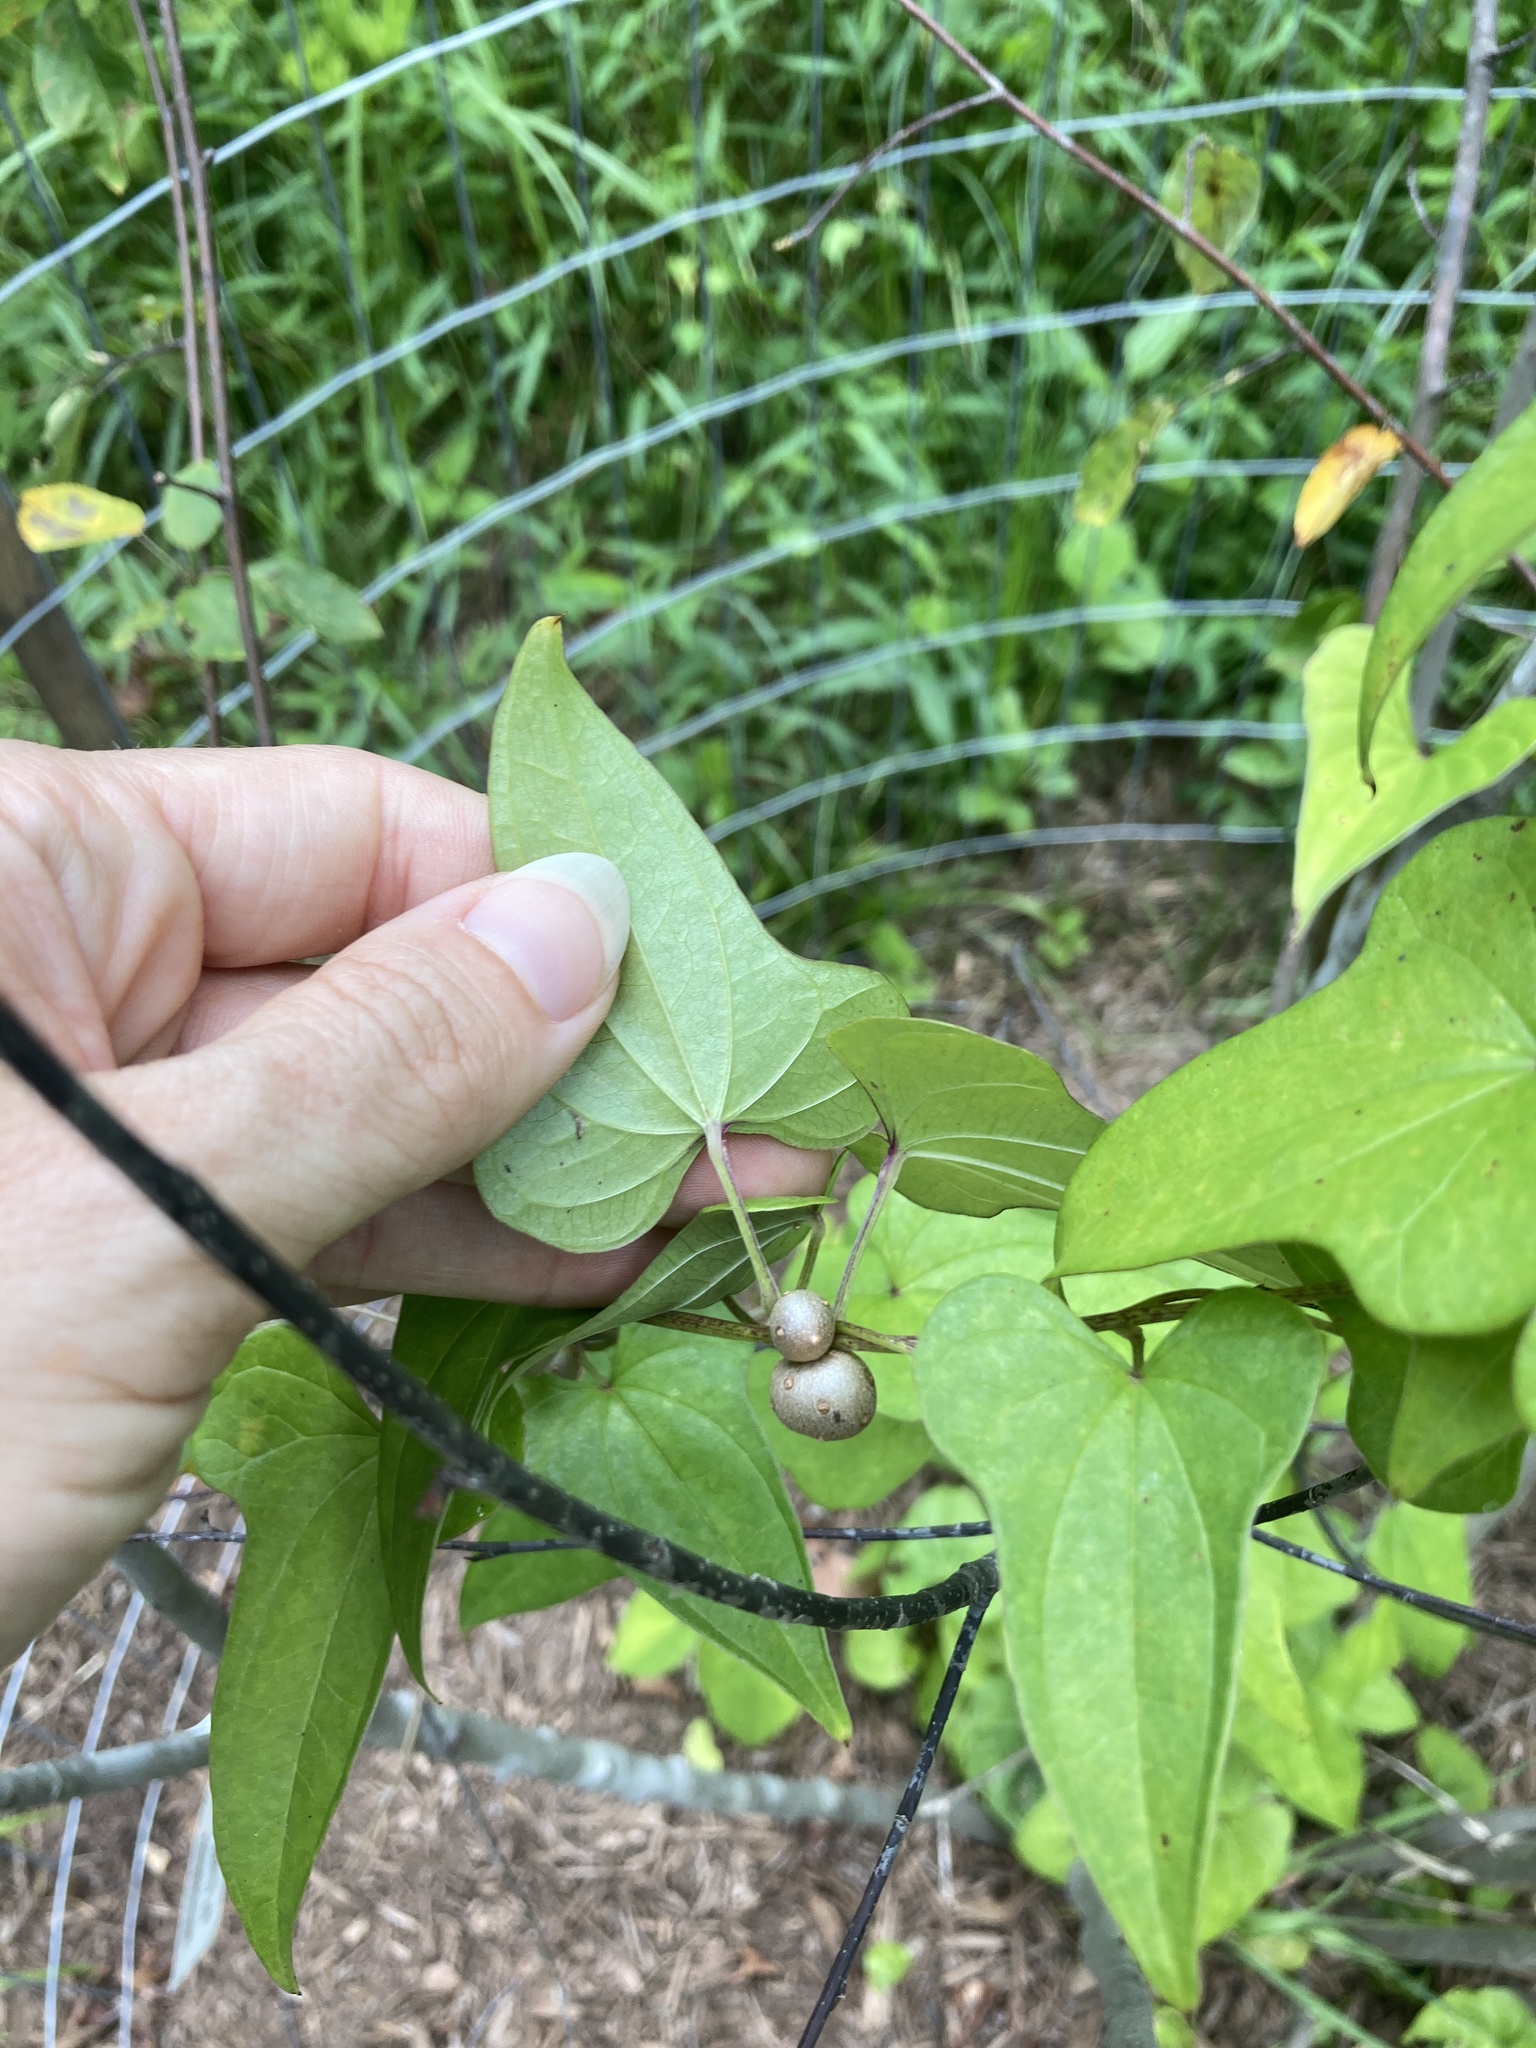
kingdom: Plantae
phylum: Tracheophyta
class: Liliopsida
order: Dioscoreales
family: Dioscoreaceae
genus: Dioscorea
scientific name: Dioscorea polystachya
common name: Chinese yam
